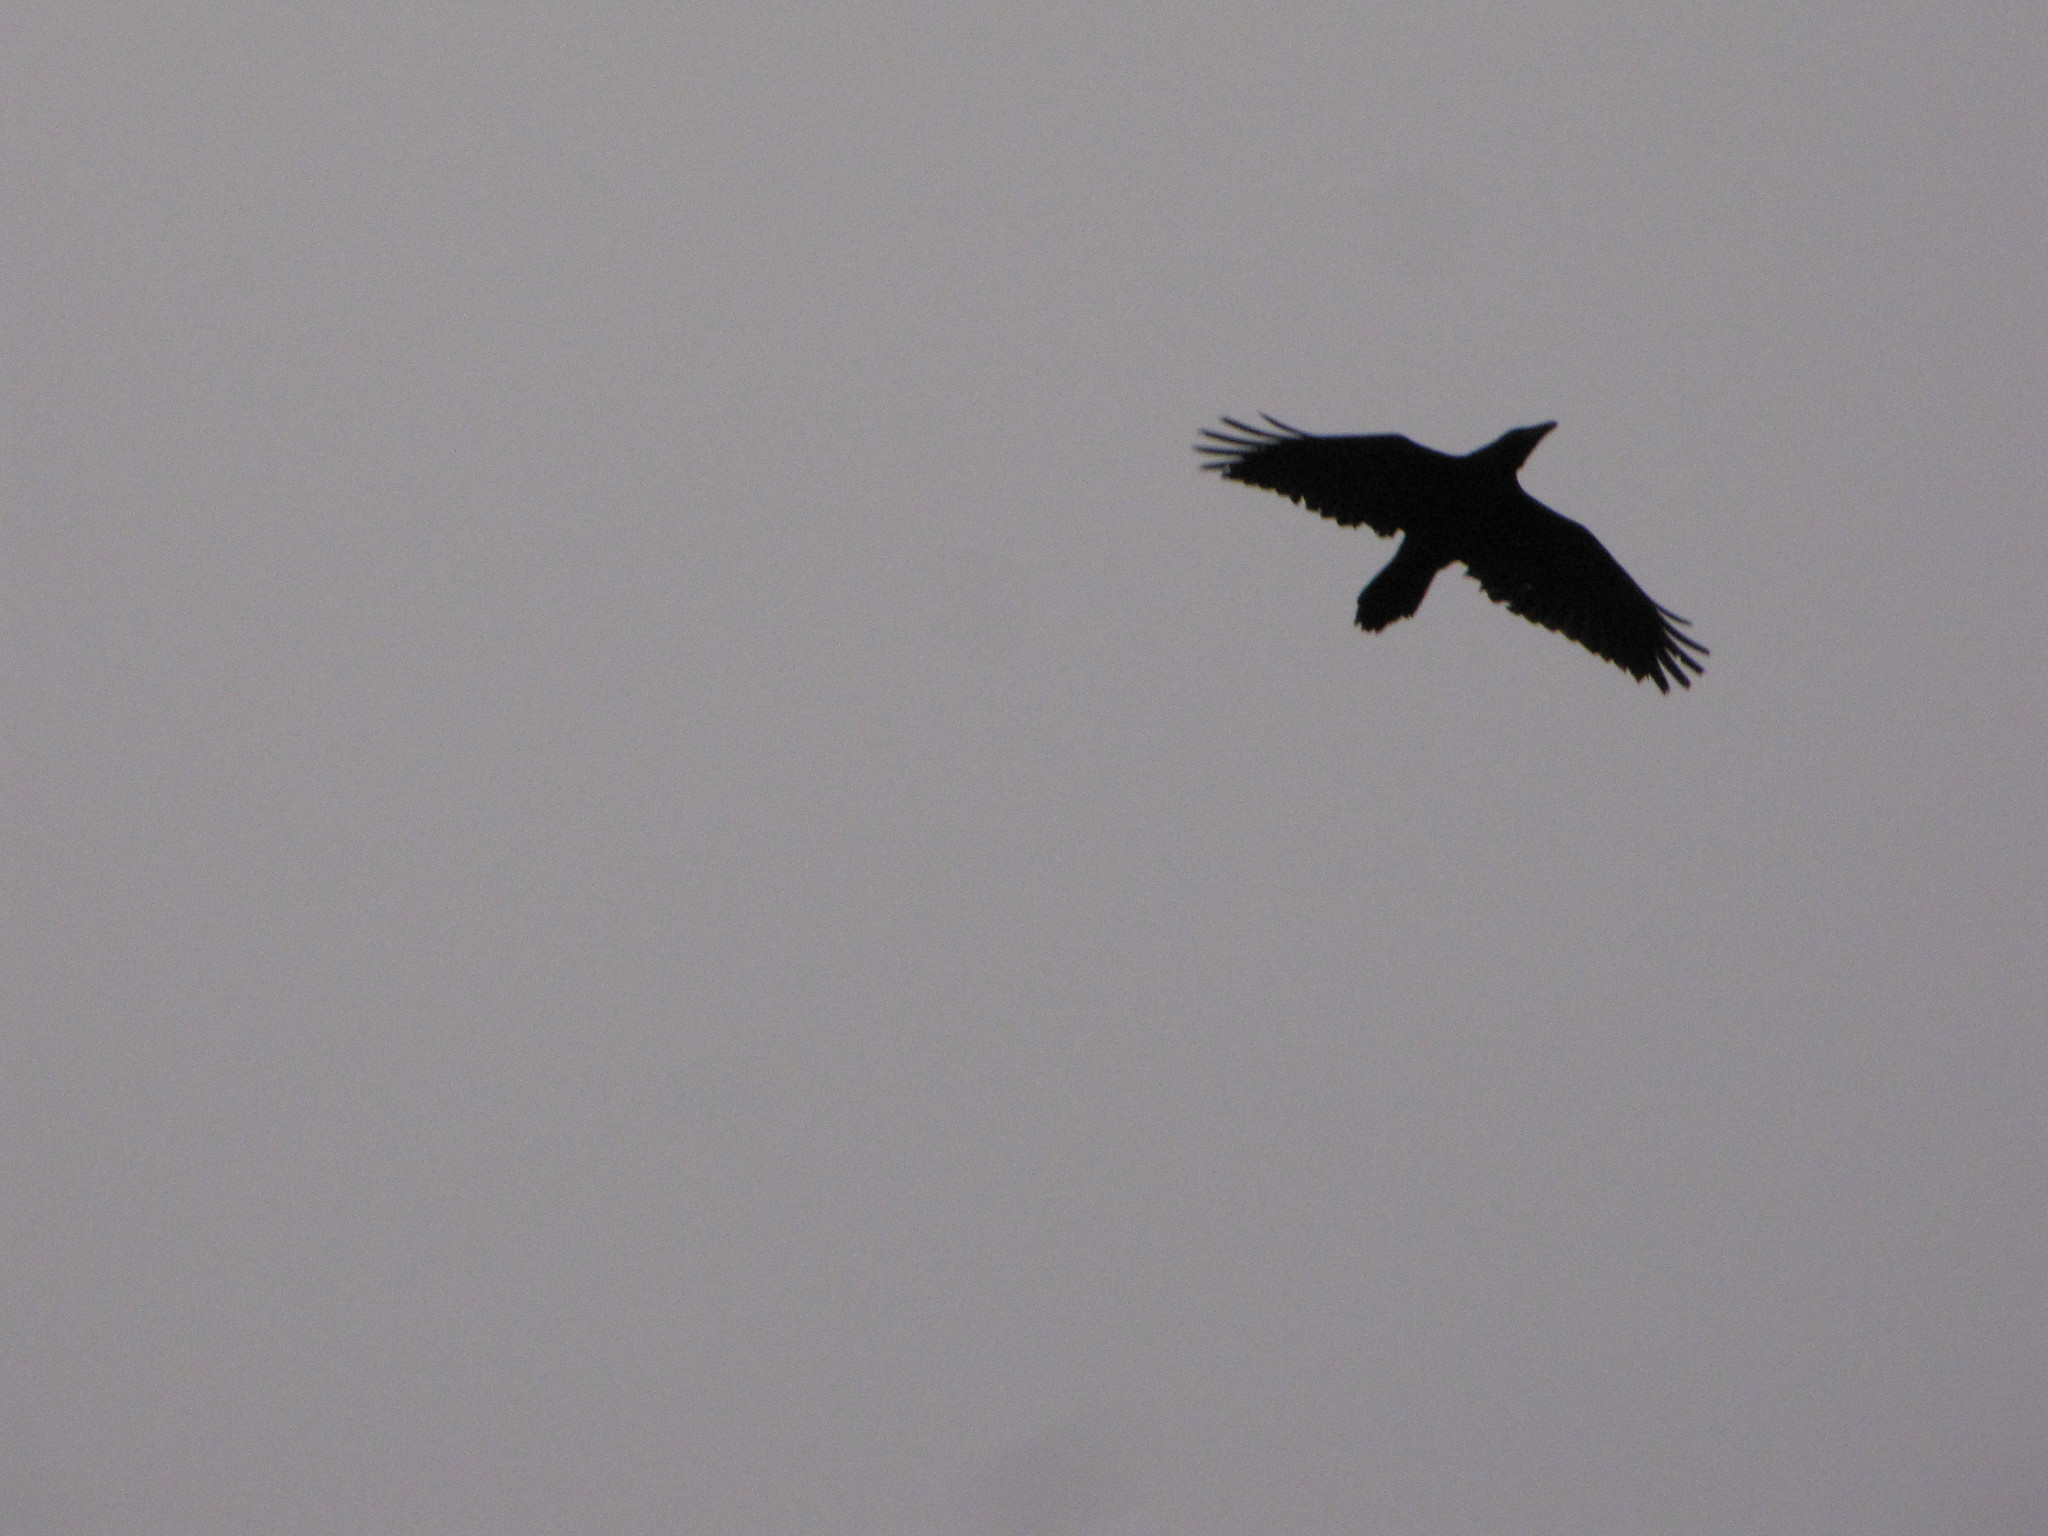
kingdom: Animalia
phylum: Chordata
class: Aves
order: Passeriformes
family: Corvidae
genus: Corvus
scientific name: Corvus corax
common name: Common raven
